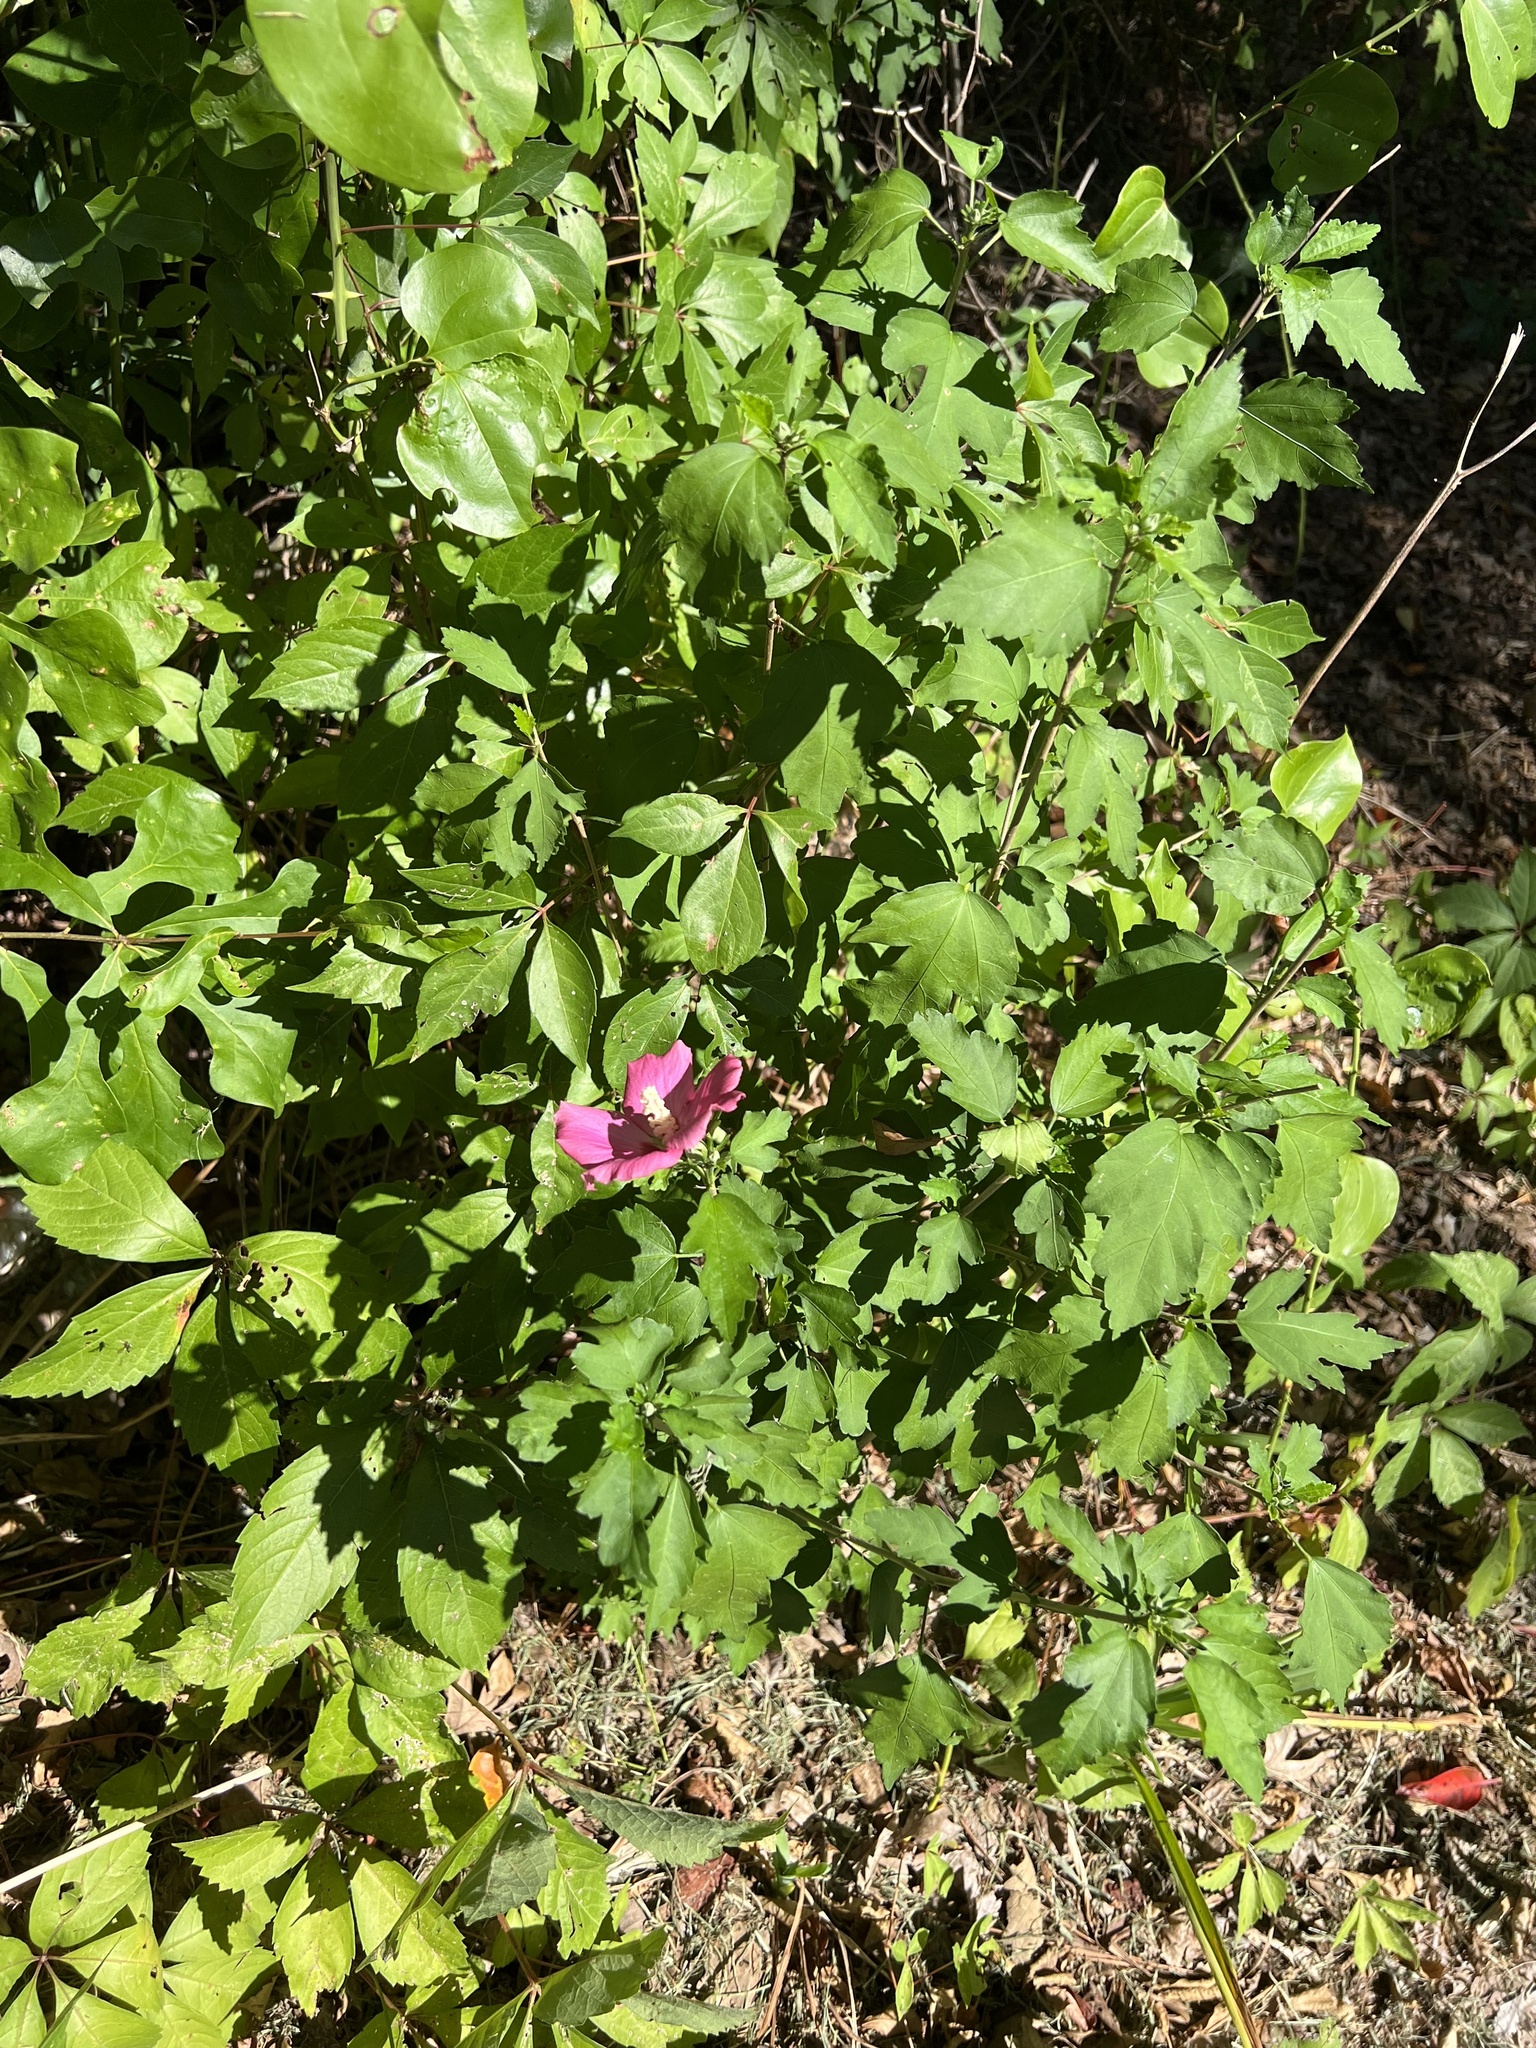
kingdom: Plantae
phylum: Tracheophyta
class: Magnoliopsida
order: Malvales
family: Malvaceae
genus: Hibiscus
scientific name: Hibiscus syriacus
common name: Syrian ketmia
